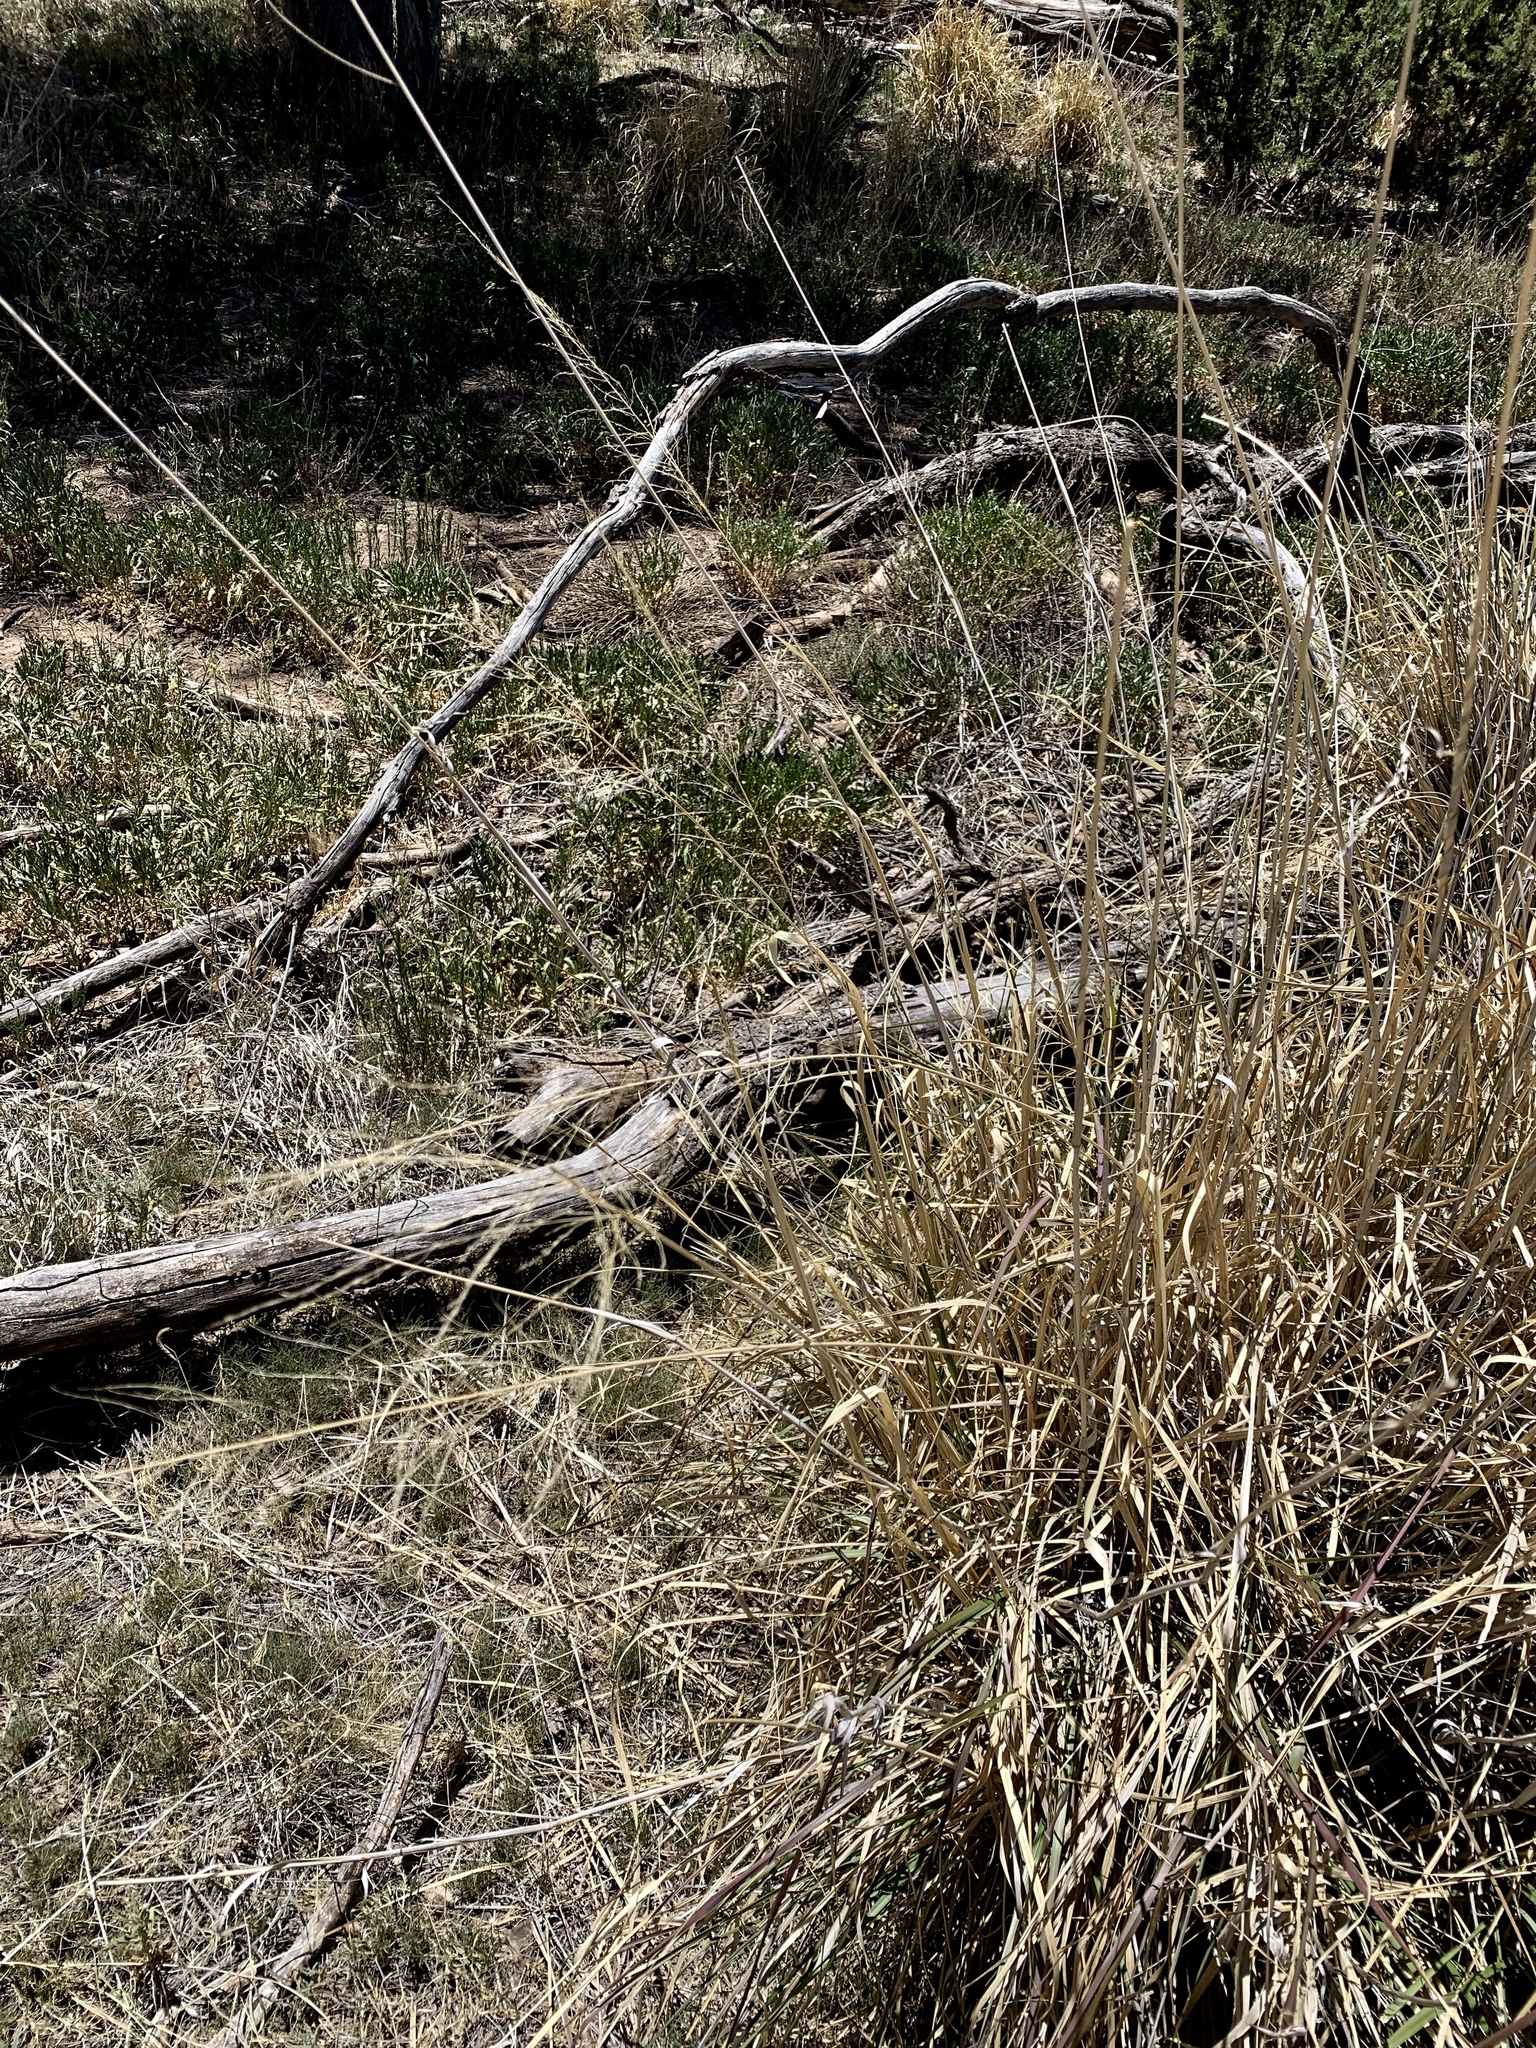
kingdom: Plantae
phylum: Tracheophyta
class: Liliopsida
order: Poales
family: Poaceae
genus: Sporobolus
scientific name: Sporobolus wrightii
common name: Big alkali sacaton
